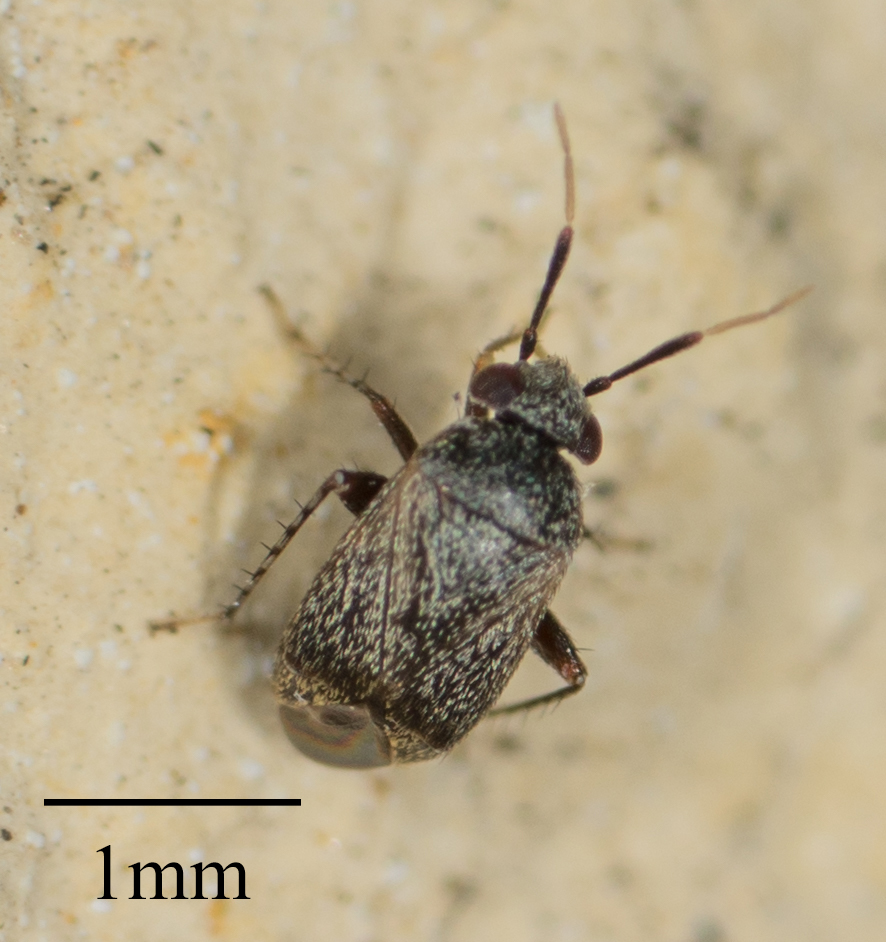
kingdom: Animalia
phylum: Arthropoda
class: Insecta
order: Hemiptera
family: Miridae
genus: Rhinacloa
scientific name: Rhinacloa forticornis
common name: Brown cotton mirid
